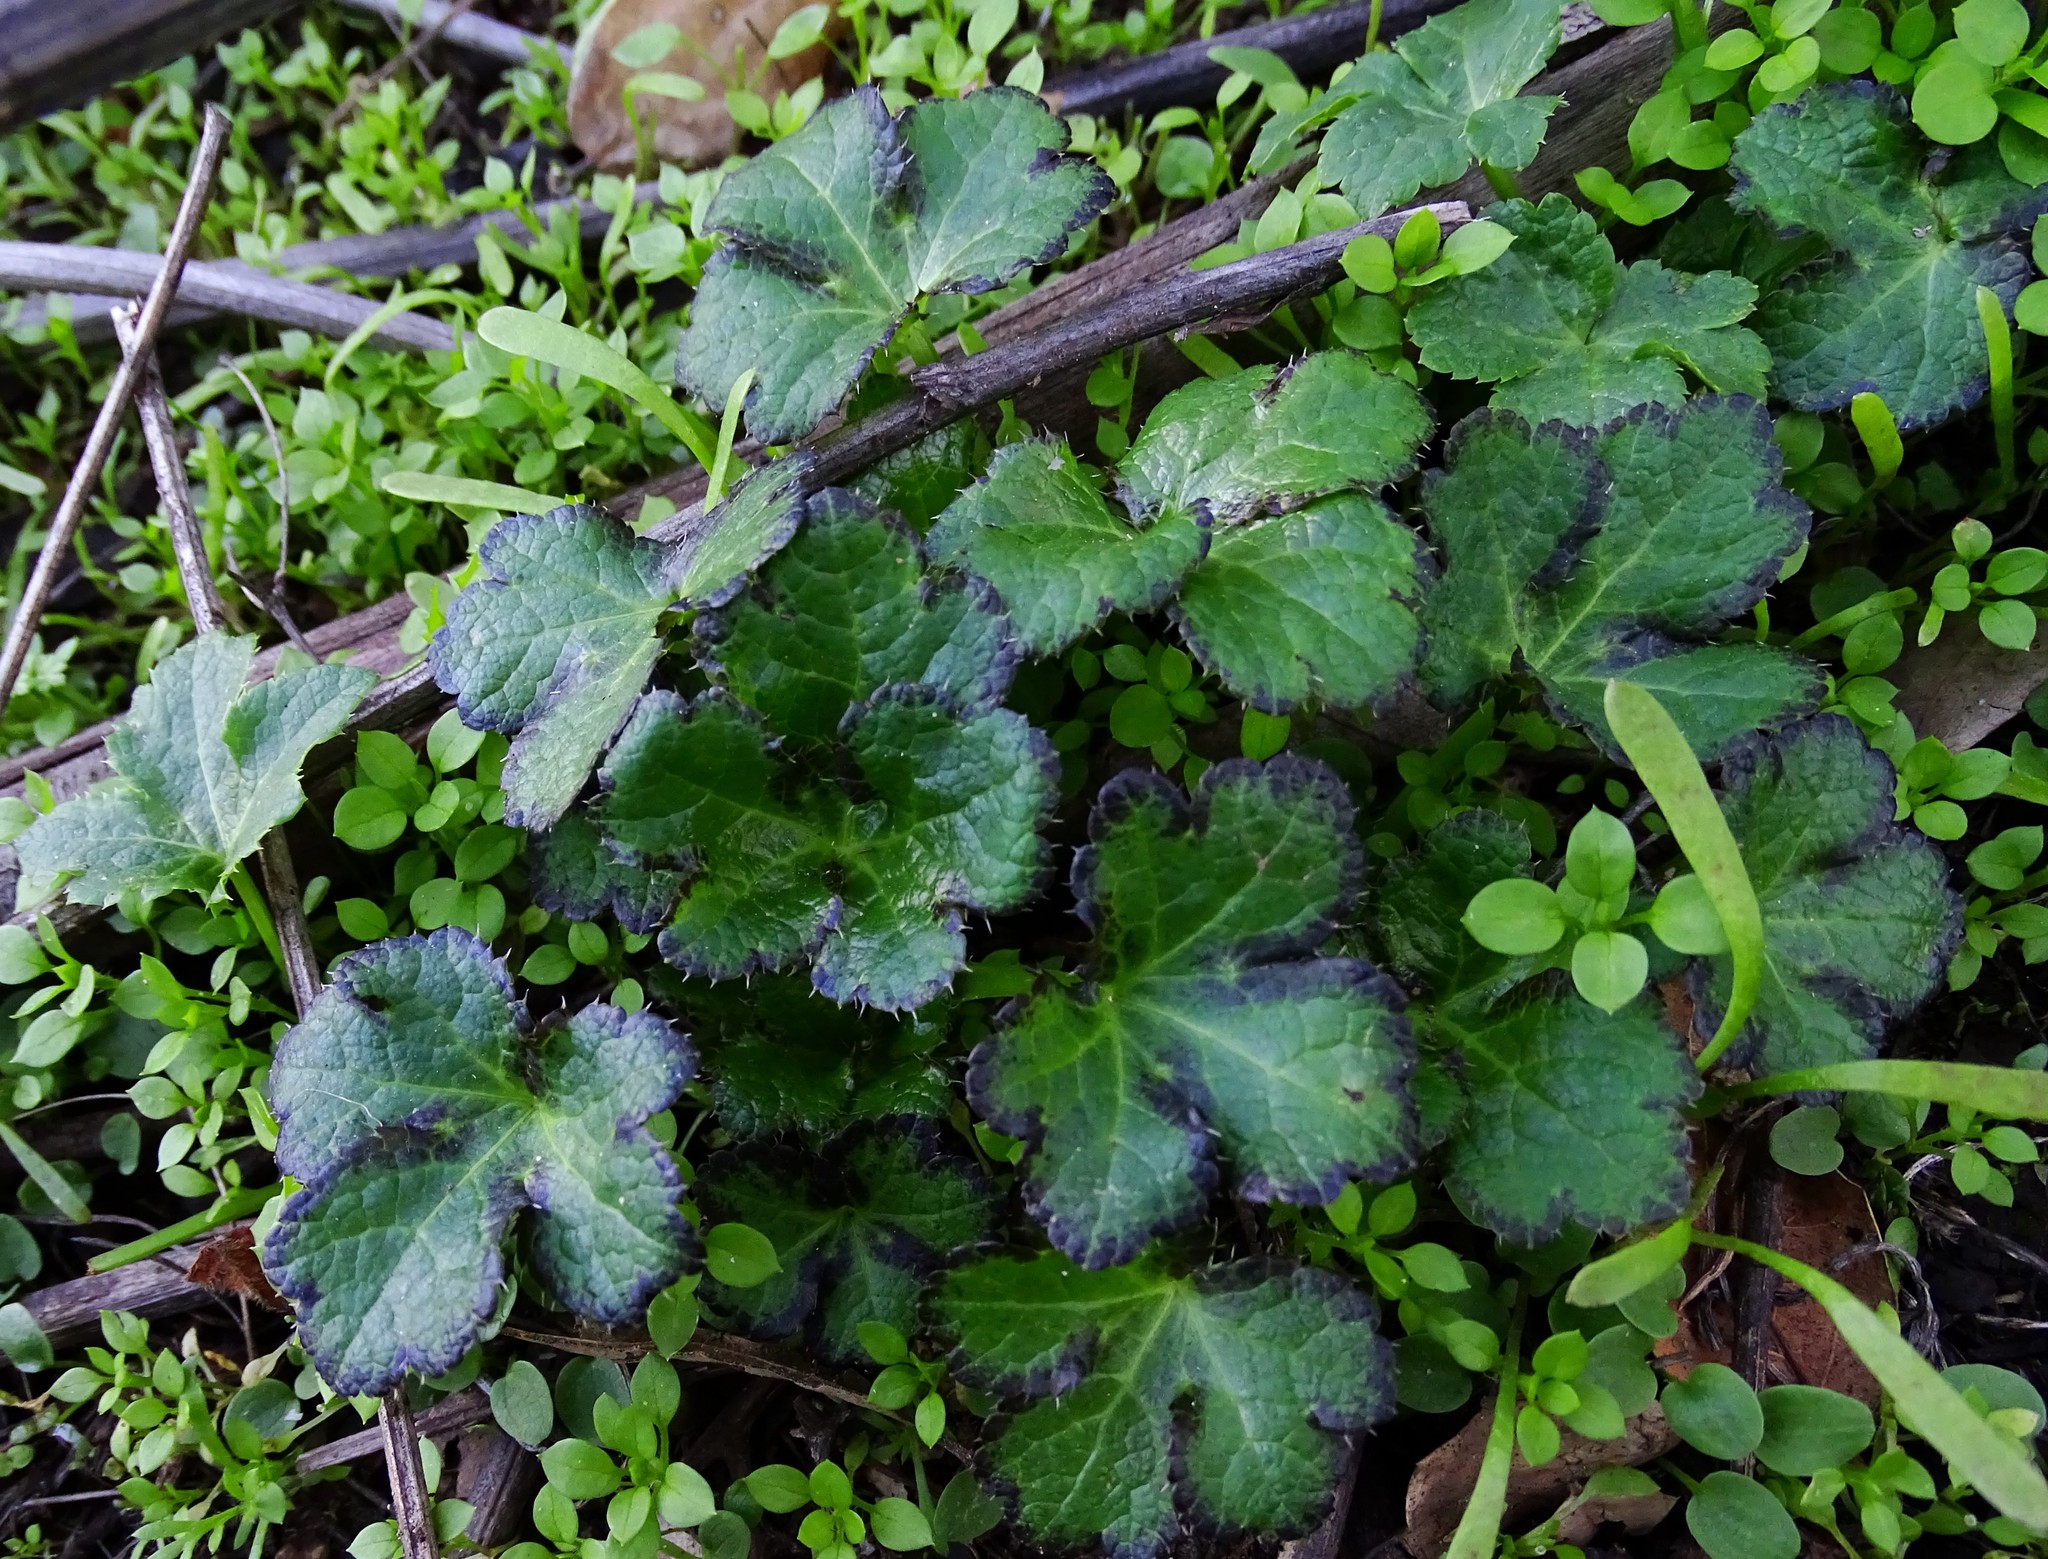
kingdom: Plantae
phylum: Tracheophyta
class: Magnoliopsida
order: Apiales
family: Apiaceae
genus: Sanicula
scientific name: Sanicula crassicaulis
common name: Western snakeroot
